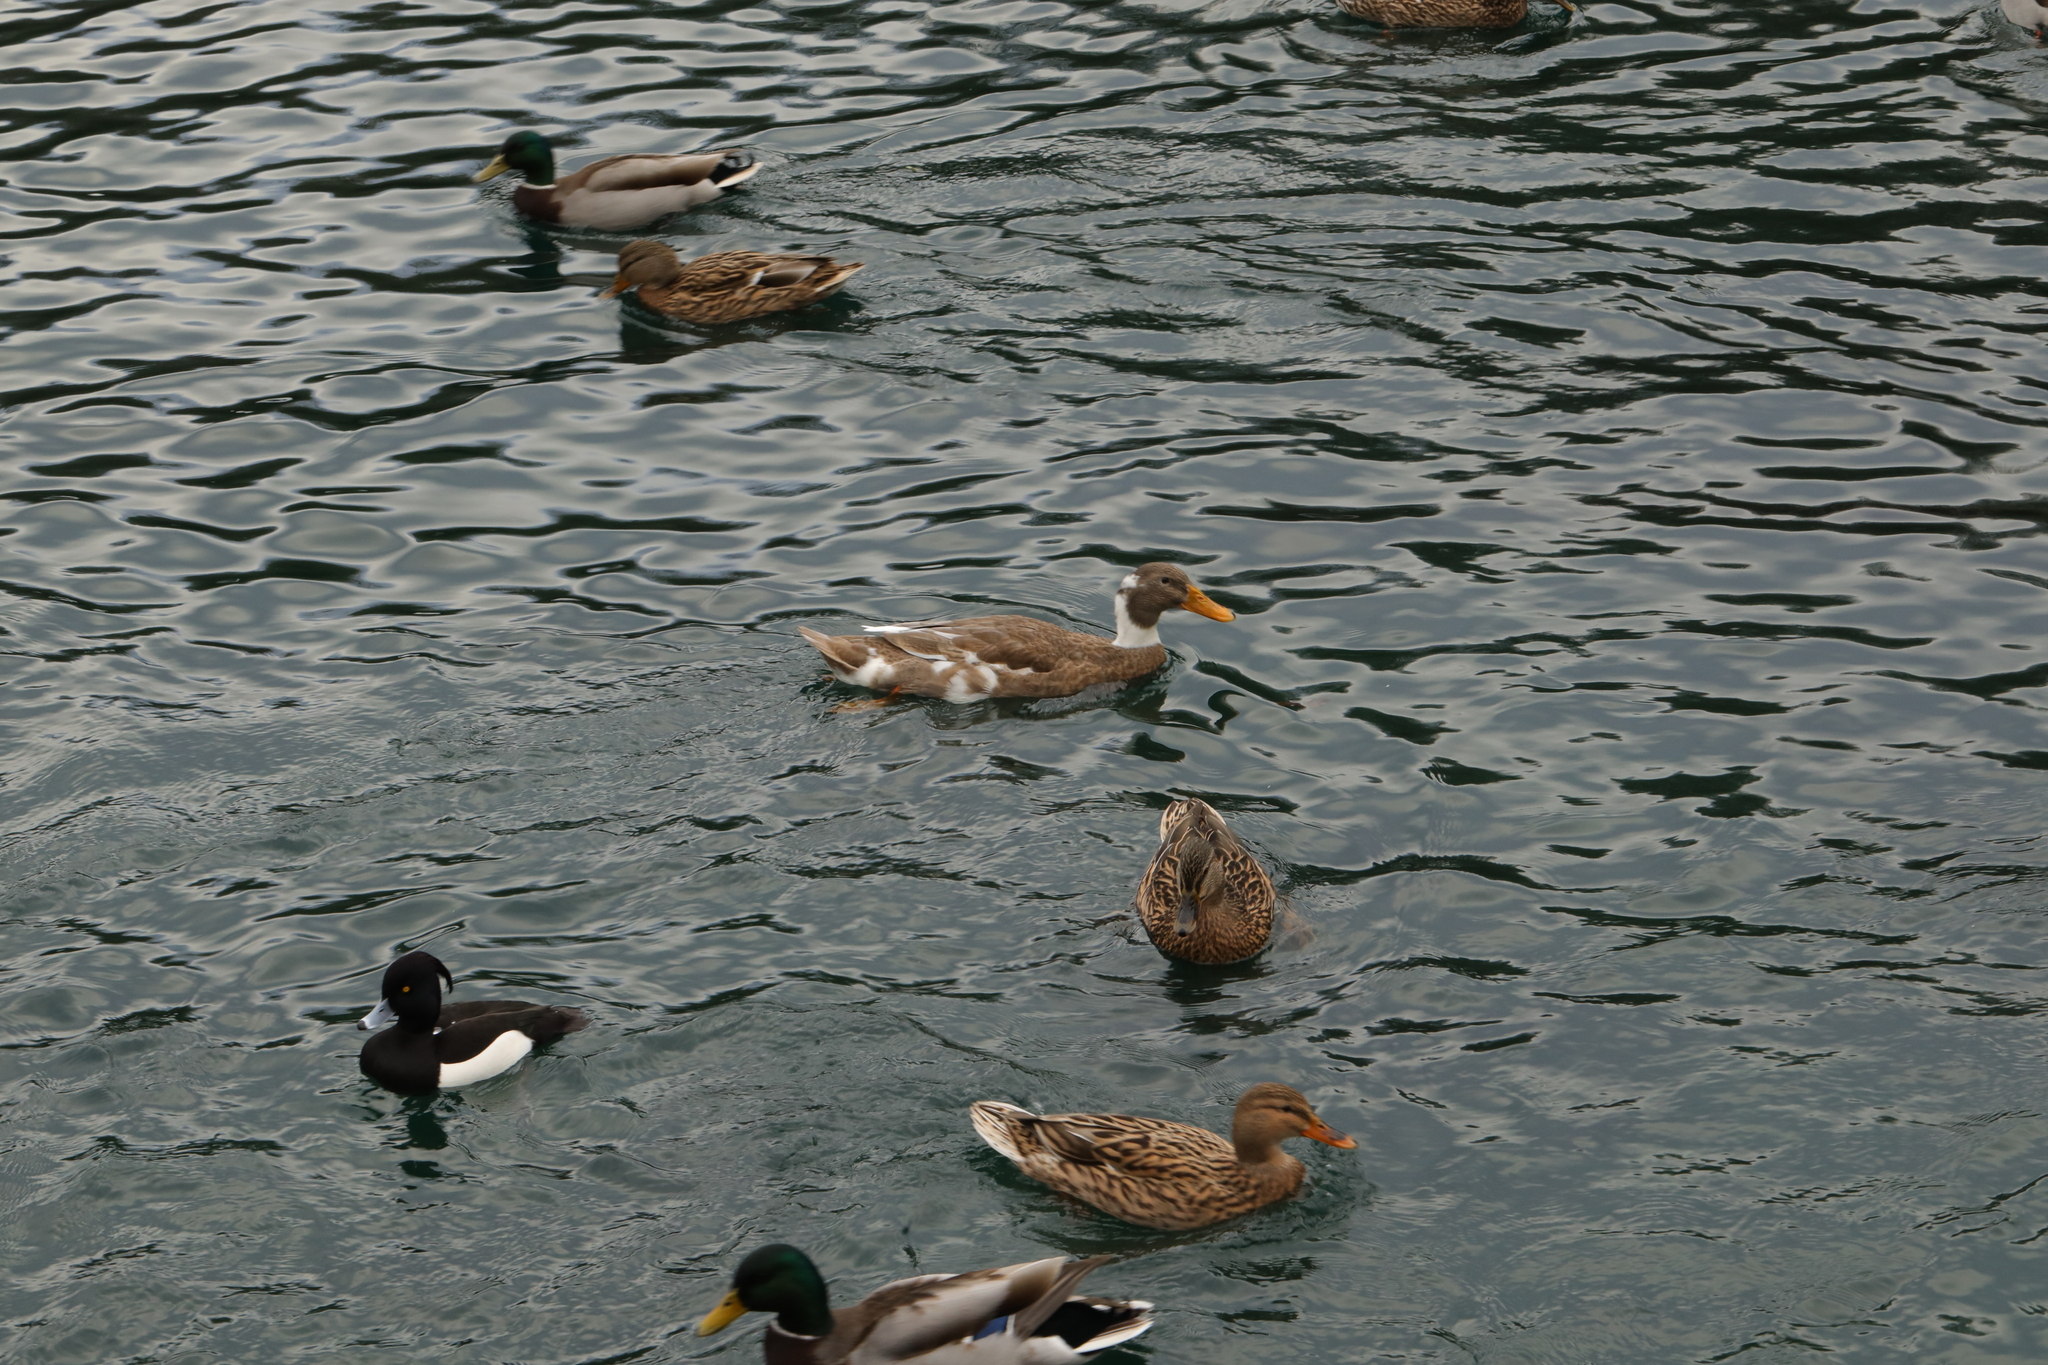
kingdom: Animalia
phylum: Chordata
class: Aves
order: Anseriformes
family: Anatidae
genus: Anas
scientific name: Anas platyrhynchos
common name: Mallard
